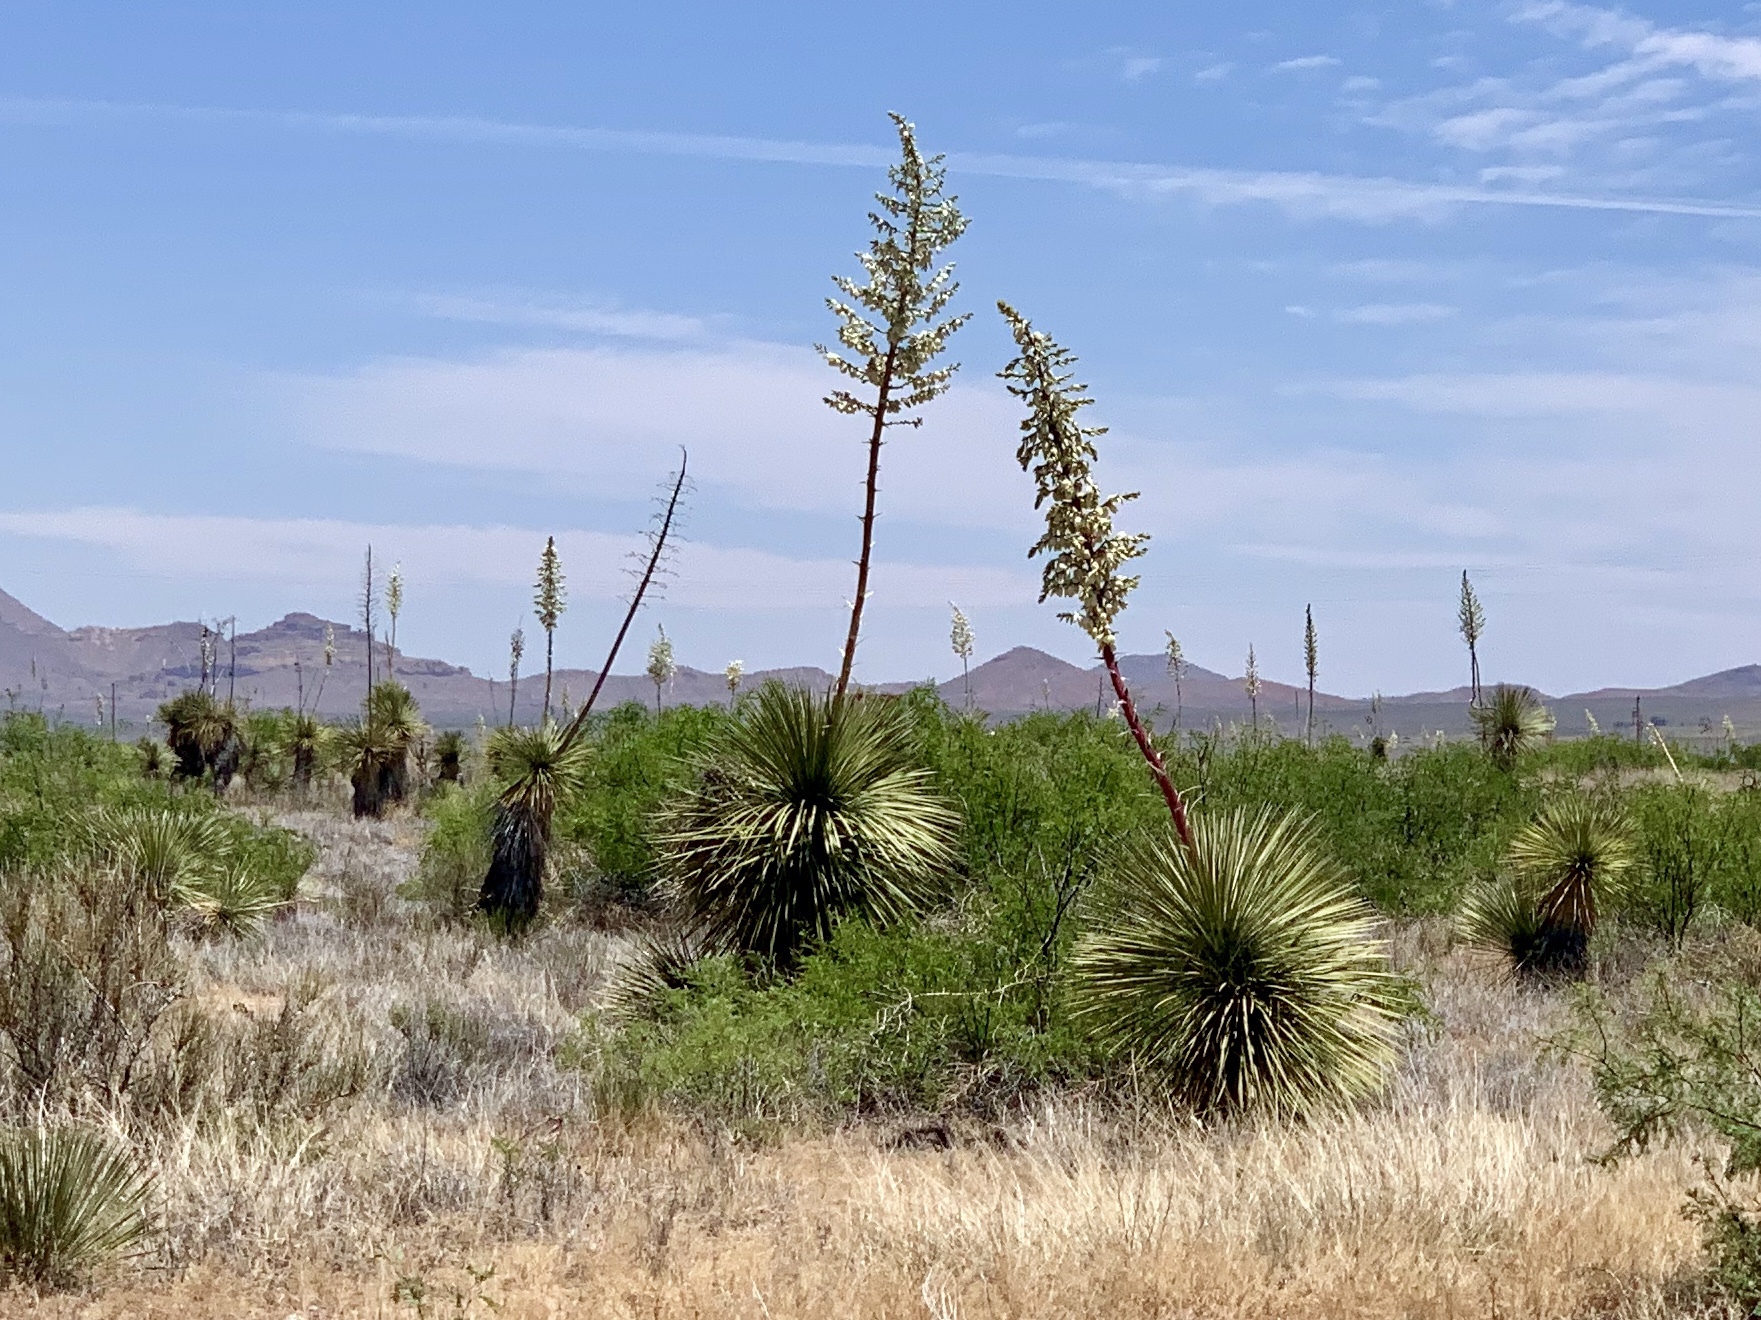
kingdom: Plantae
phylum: Tracheophyta
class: Liliopsida
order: Asparagales
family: Asparagaceae
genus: Yucca
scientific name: Yucca elata
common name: Palmella
